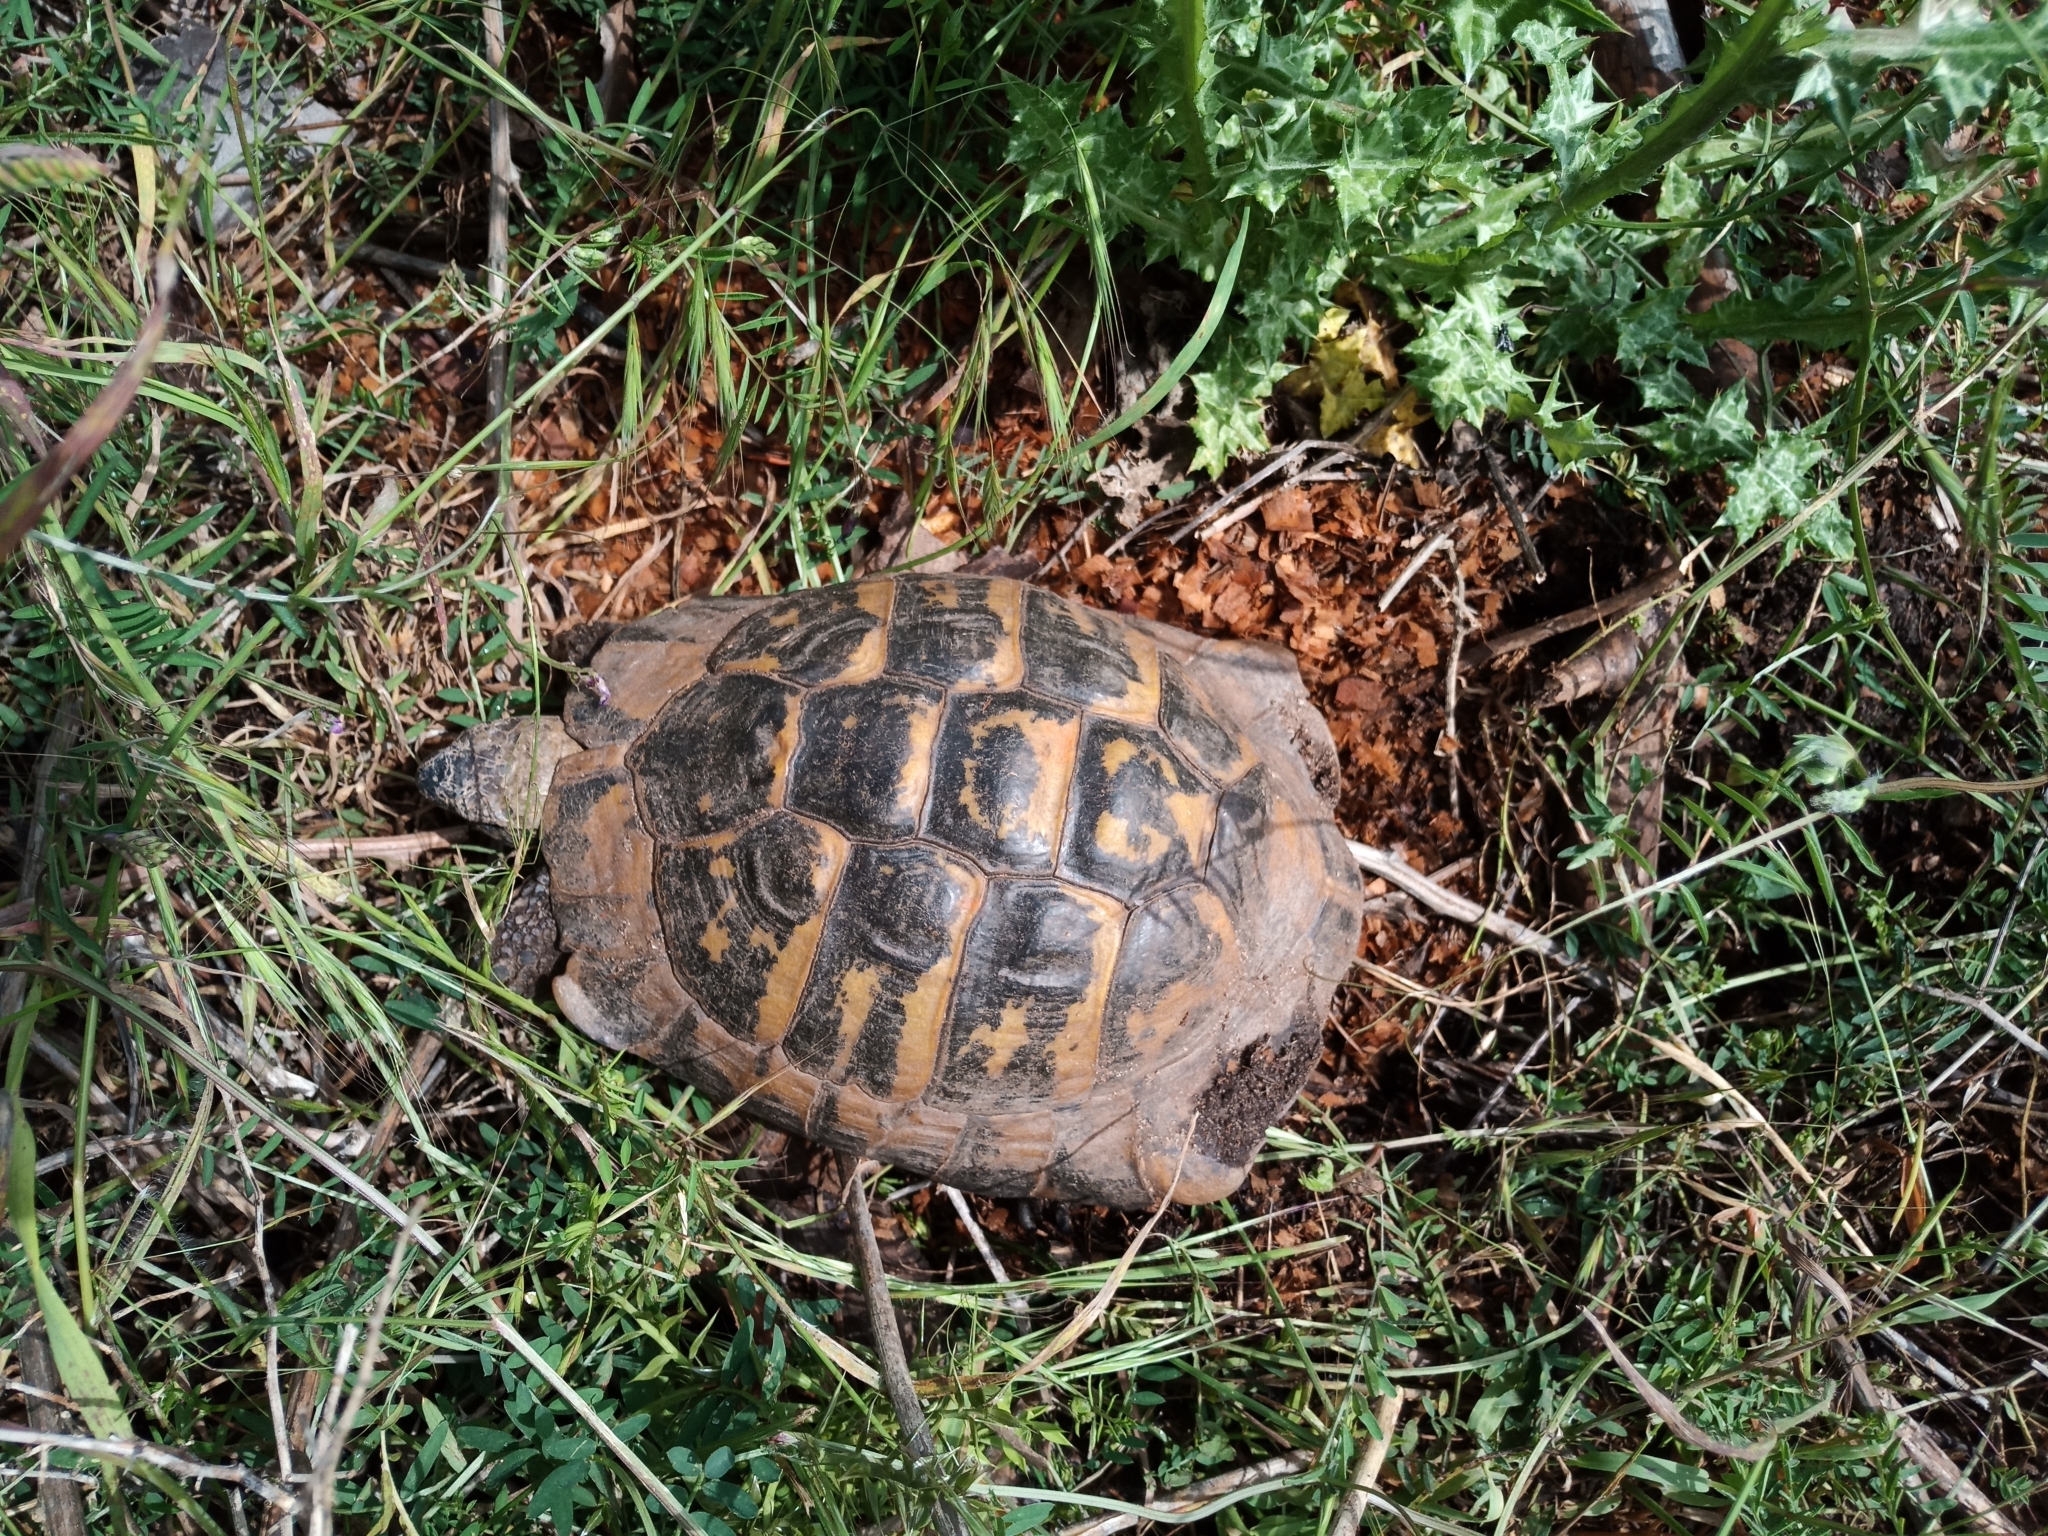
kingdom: Animalia
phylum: Chordata
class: Testudines
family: Testudinidae
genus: Testudo
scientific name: Testudo hermanni
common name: Hermann's tortoise
